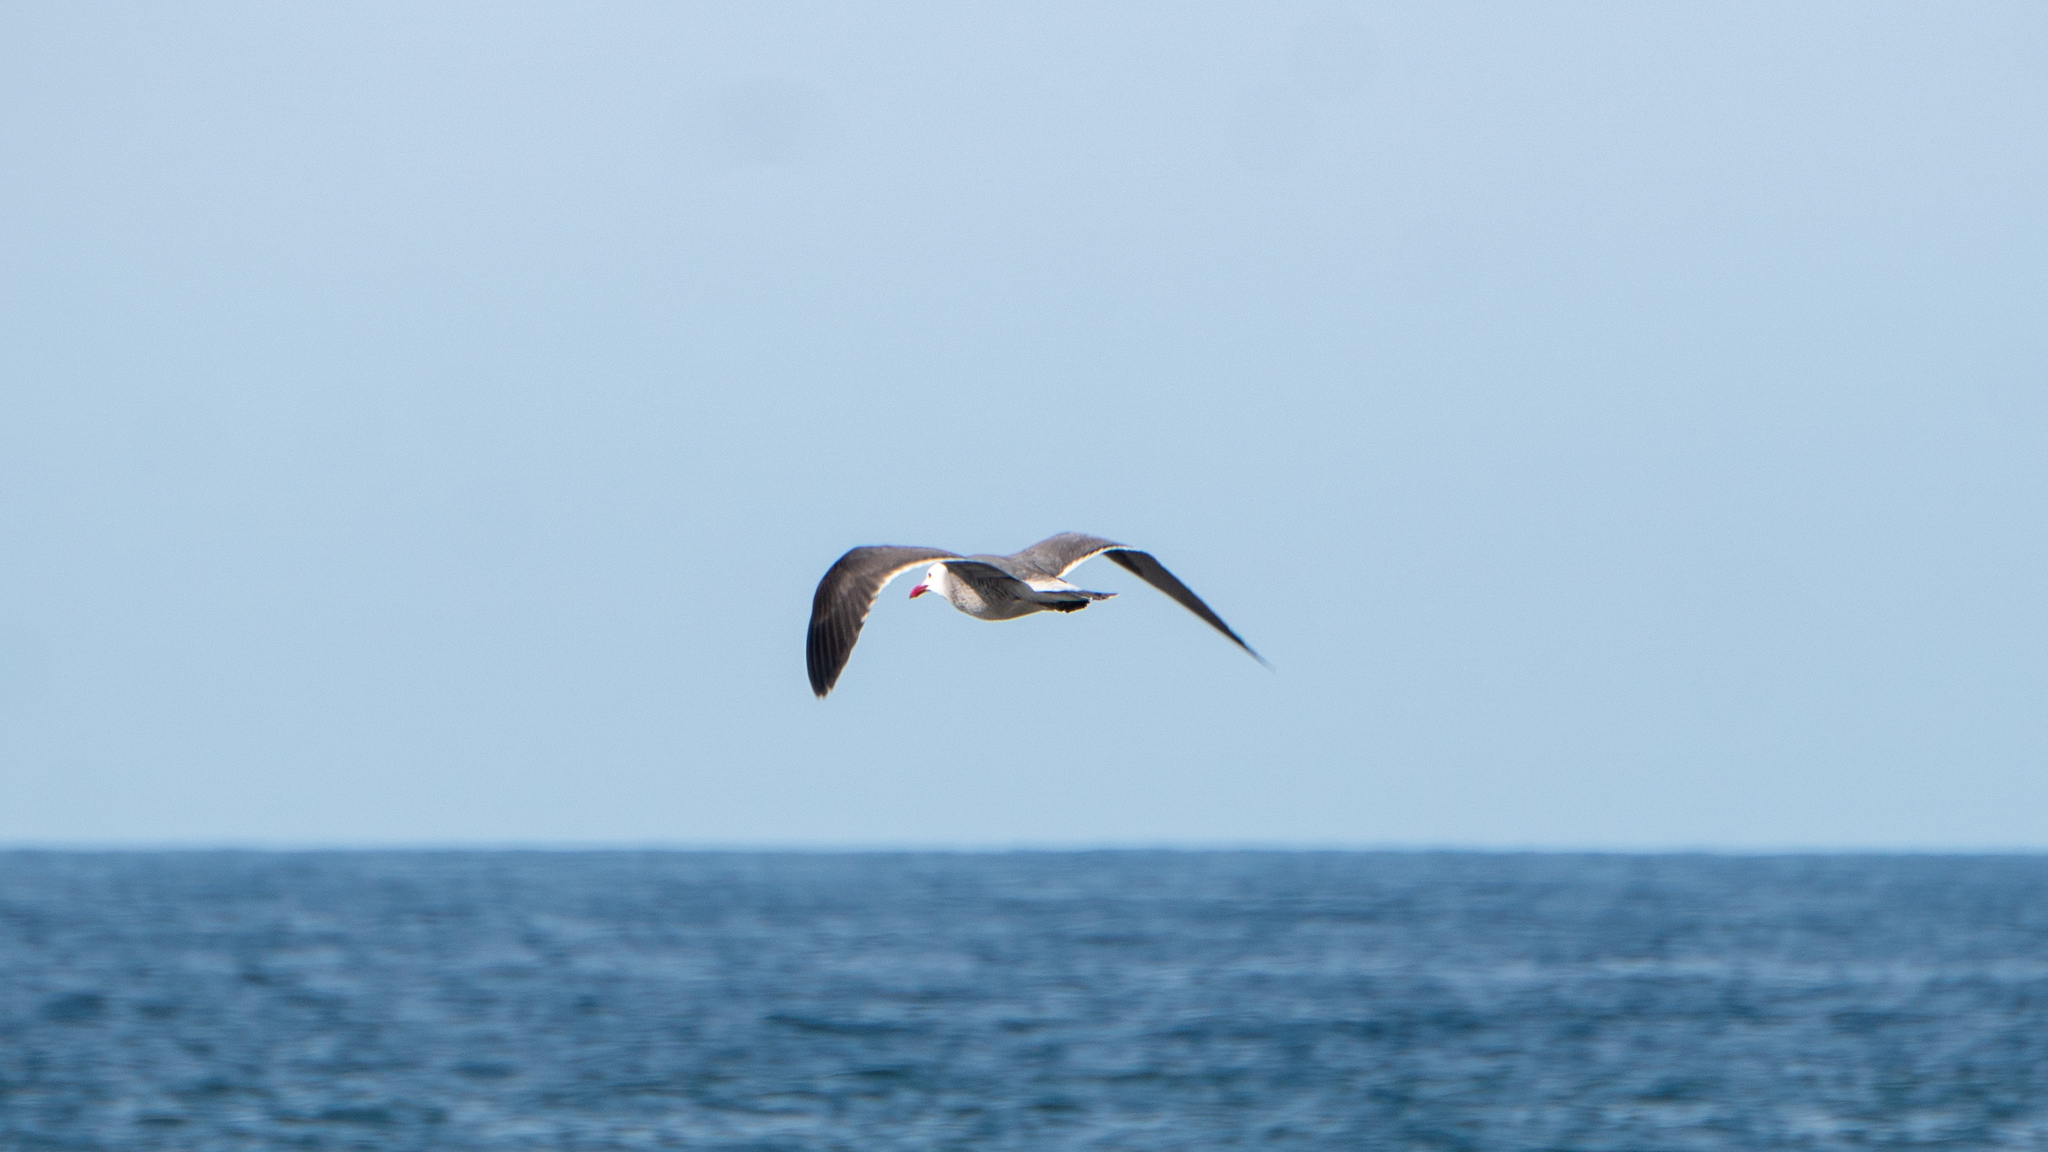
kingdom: Animalia
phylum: Chordata
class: Aves
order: Charadriiformes
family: Laridae
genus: Larus
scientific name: Larus heermanni
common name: Heermann's gull
